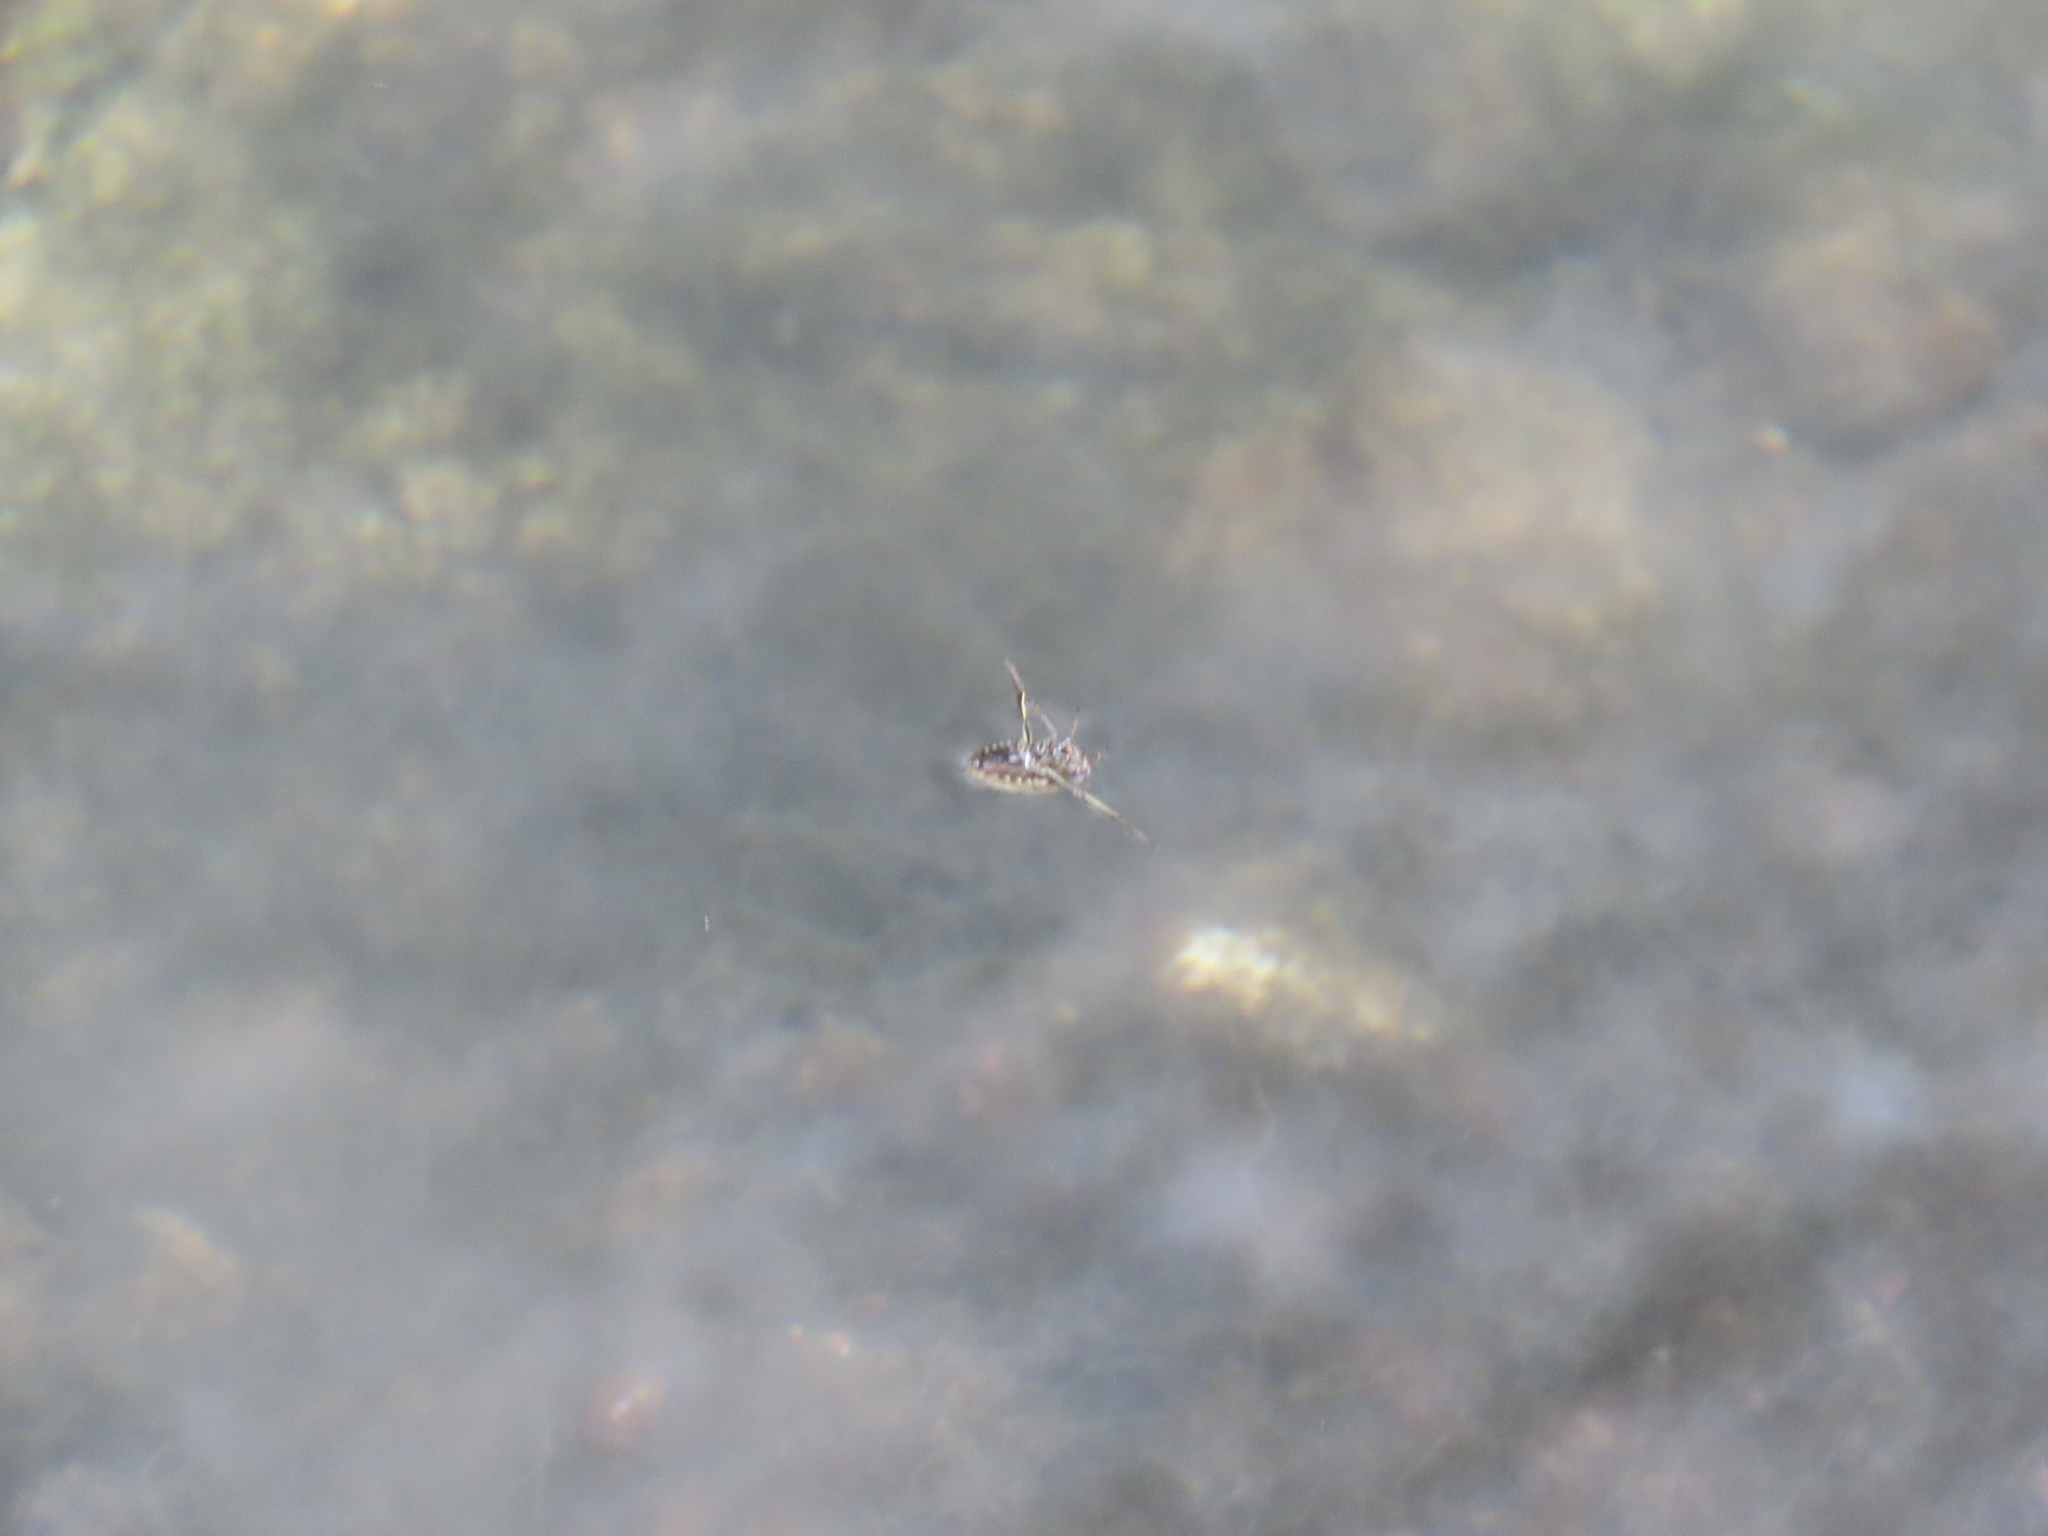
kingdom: Animalia
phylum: Arthropoda
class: Insecta
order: Hemiptera
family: Notonectidae
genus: Notonecta
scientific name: Notonecta
